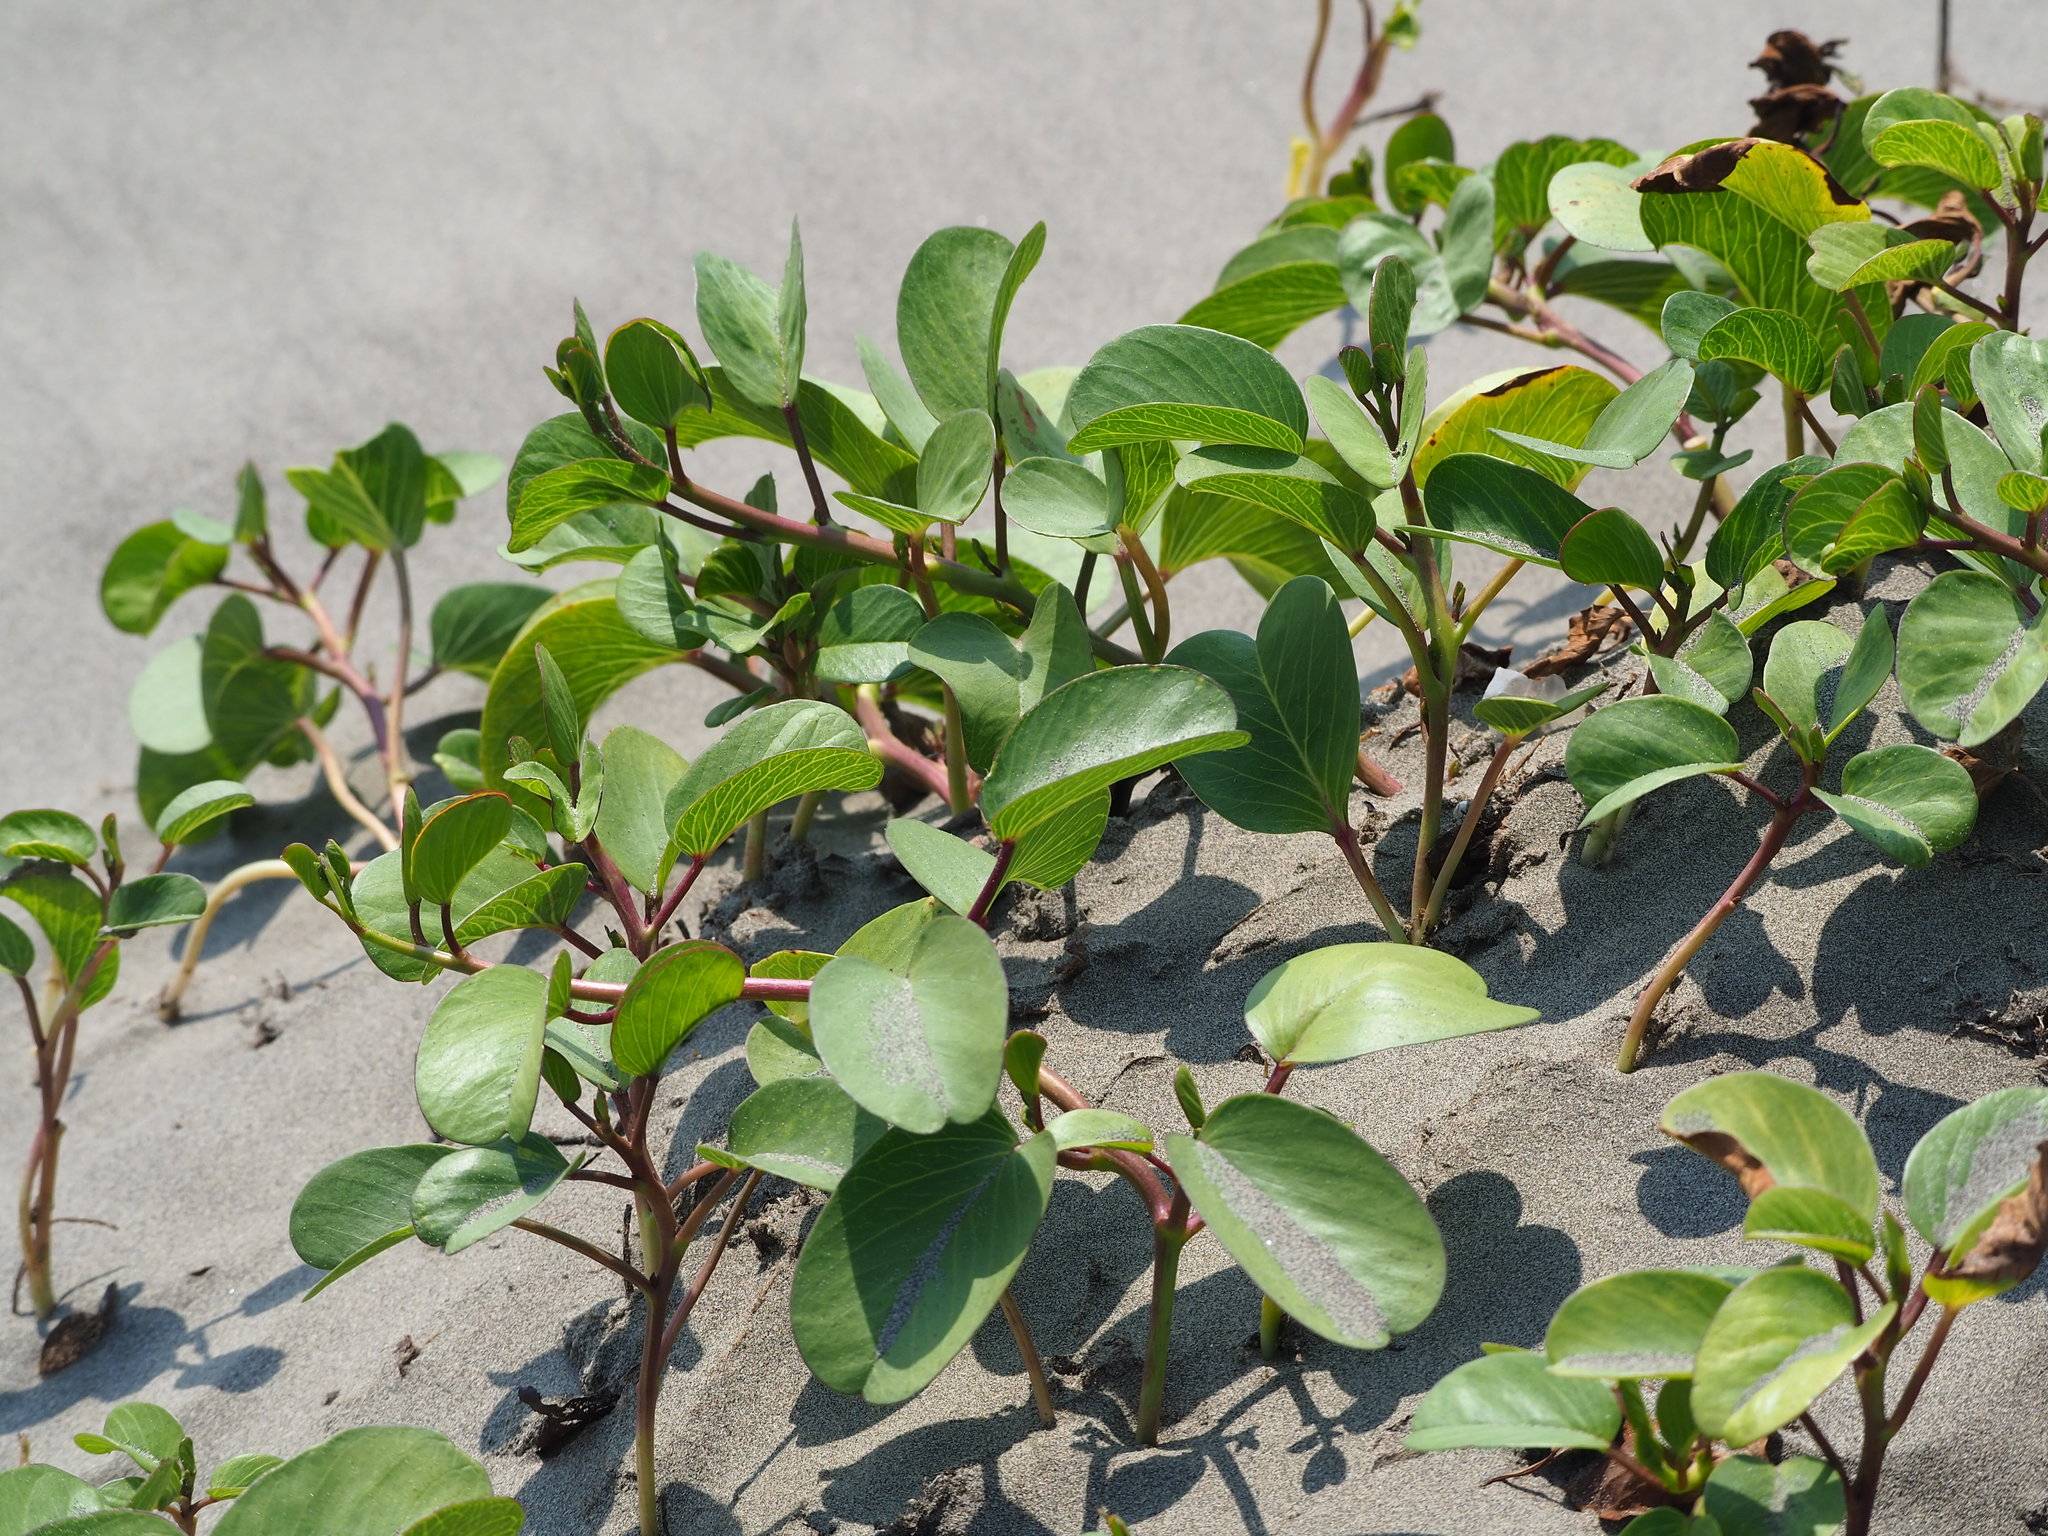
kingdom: Plantae
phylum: Tracheophyta
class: Magnoliopsida
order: Solanales
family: Convolvulaceae
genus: Ipomoea
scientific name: Ipomoea pes-caprae
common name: Beach morning glory
